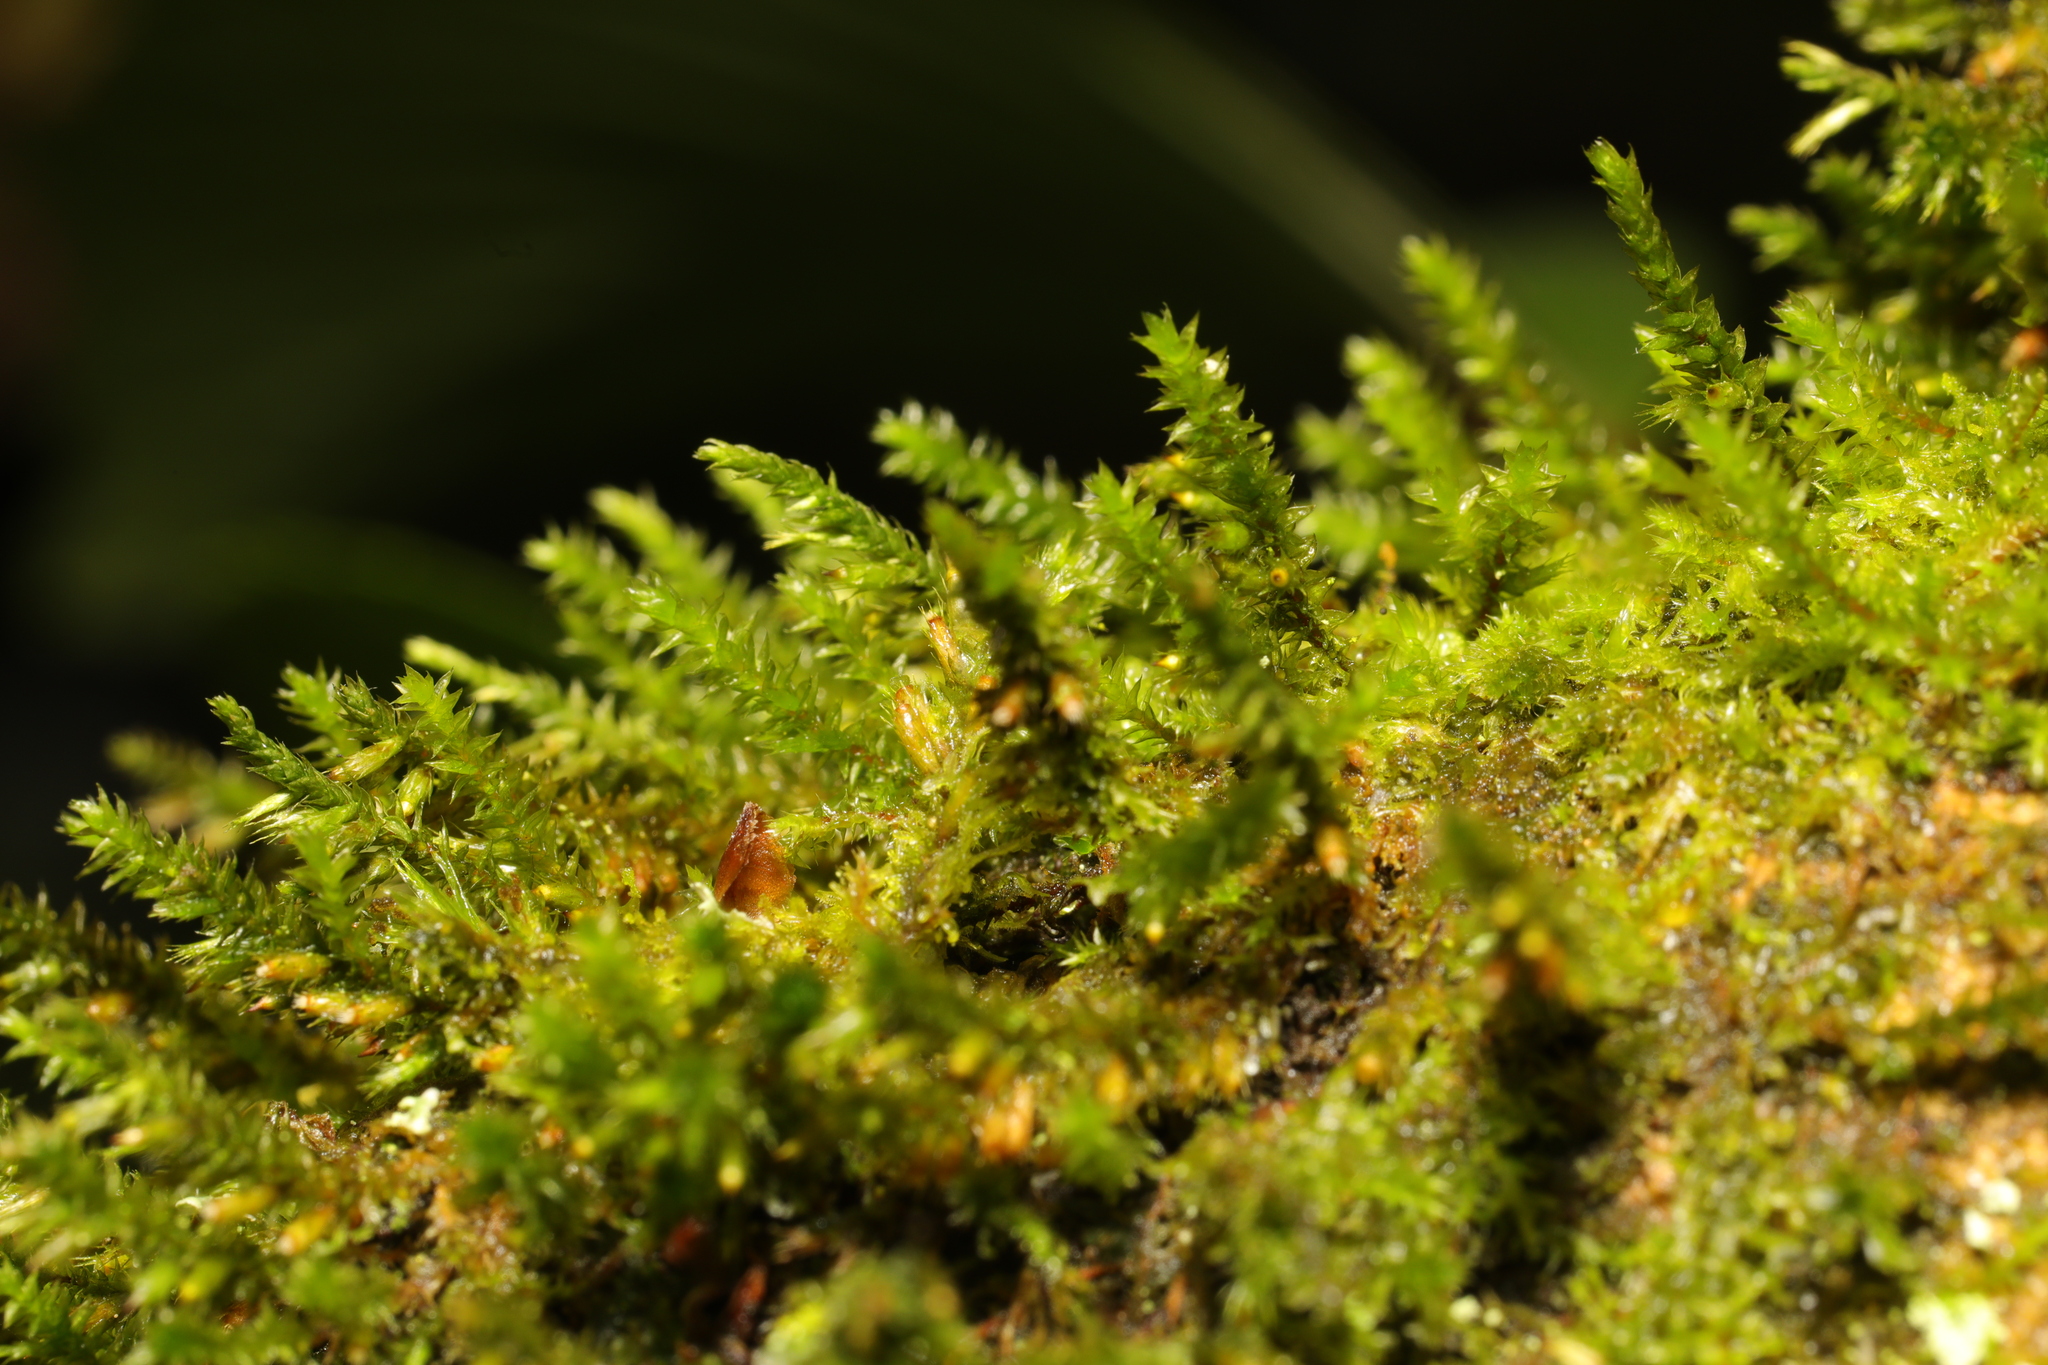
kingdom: Plantae
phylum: Bryophyta
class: Bryopsida
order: Hypnales
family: Cryphaeaceae
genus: Cryphaea
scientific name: Cryphaea heteromalla
